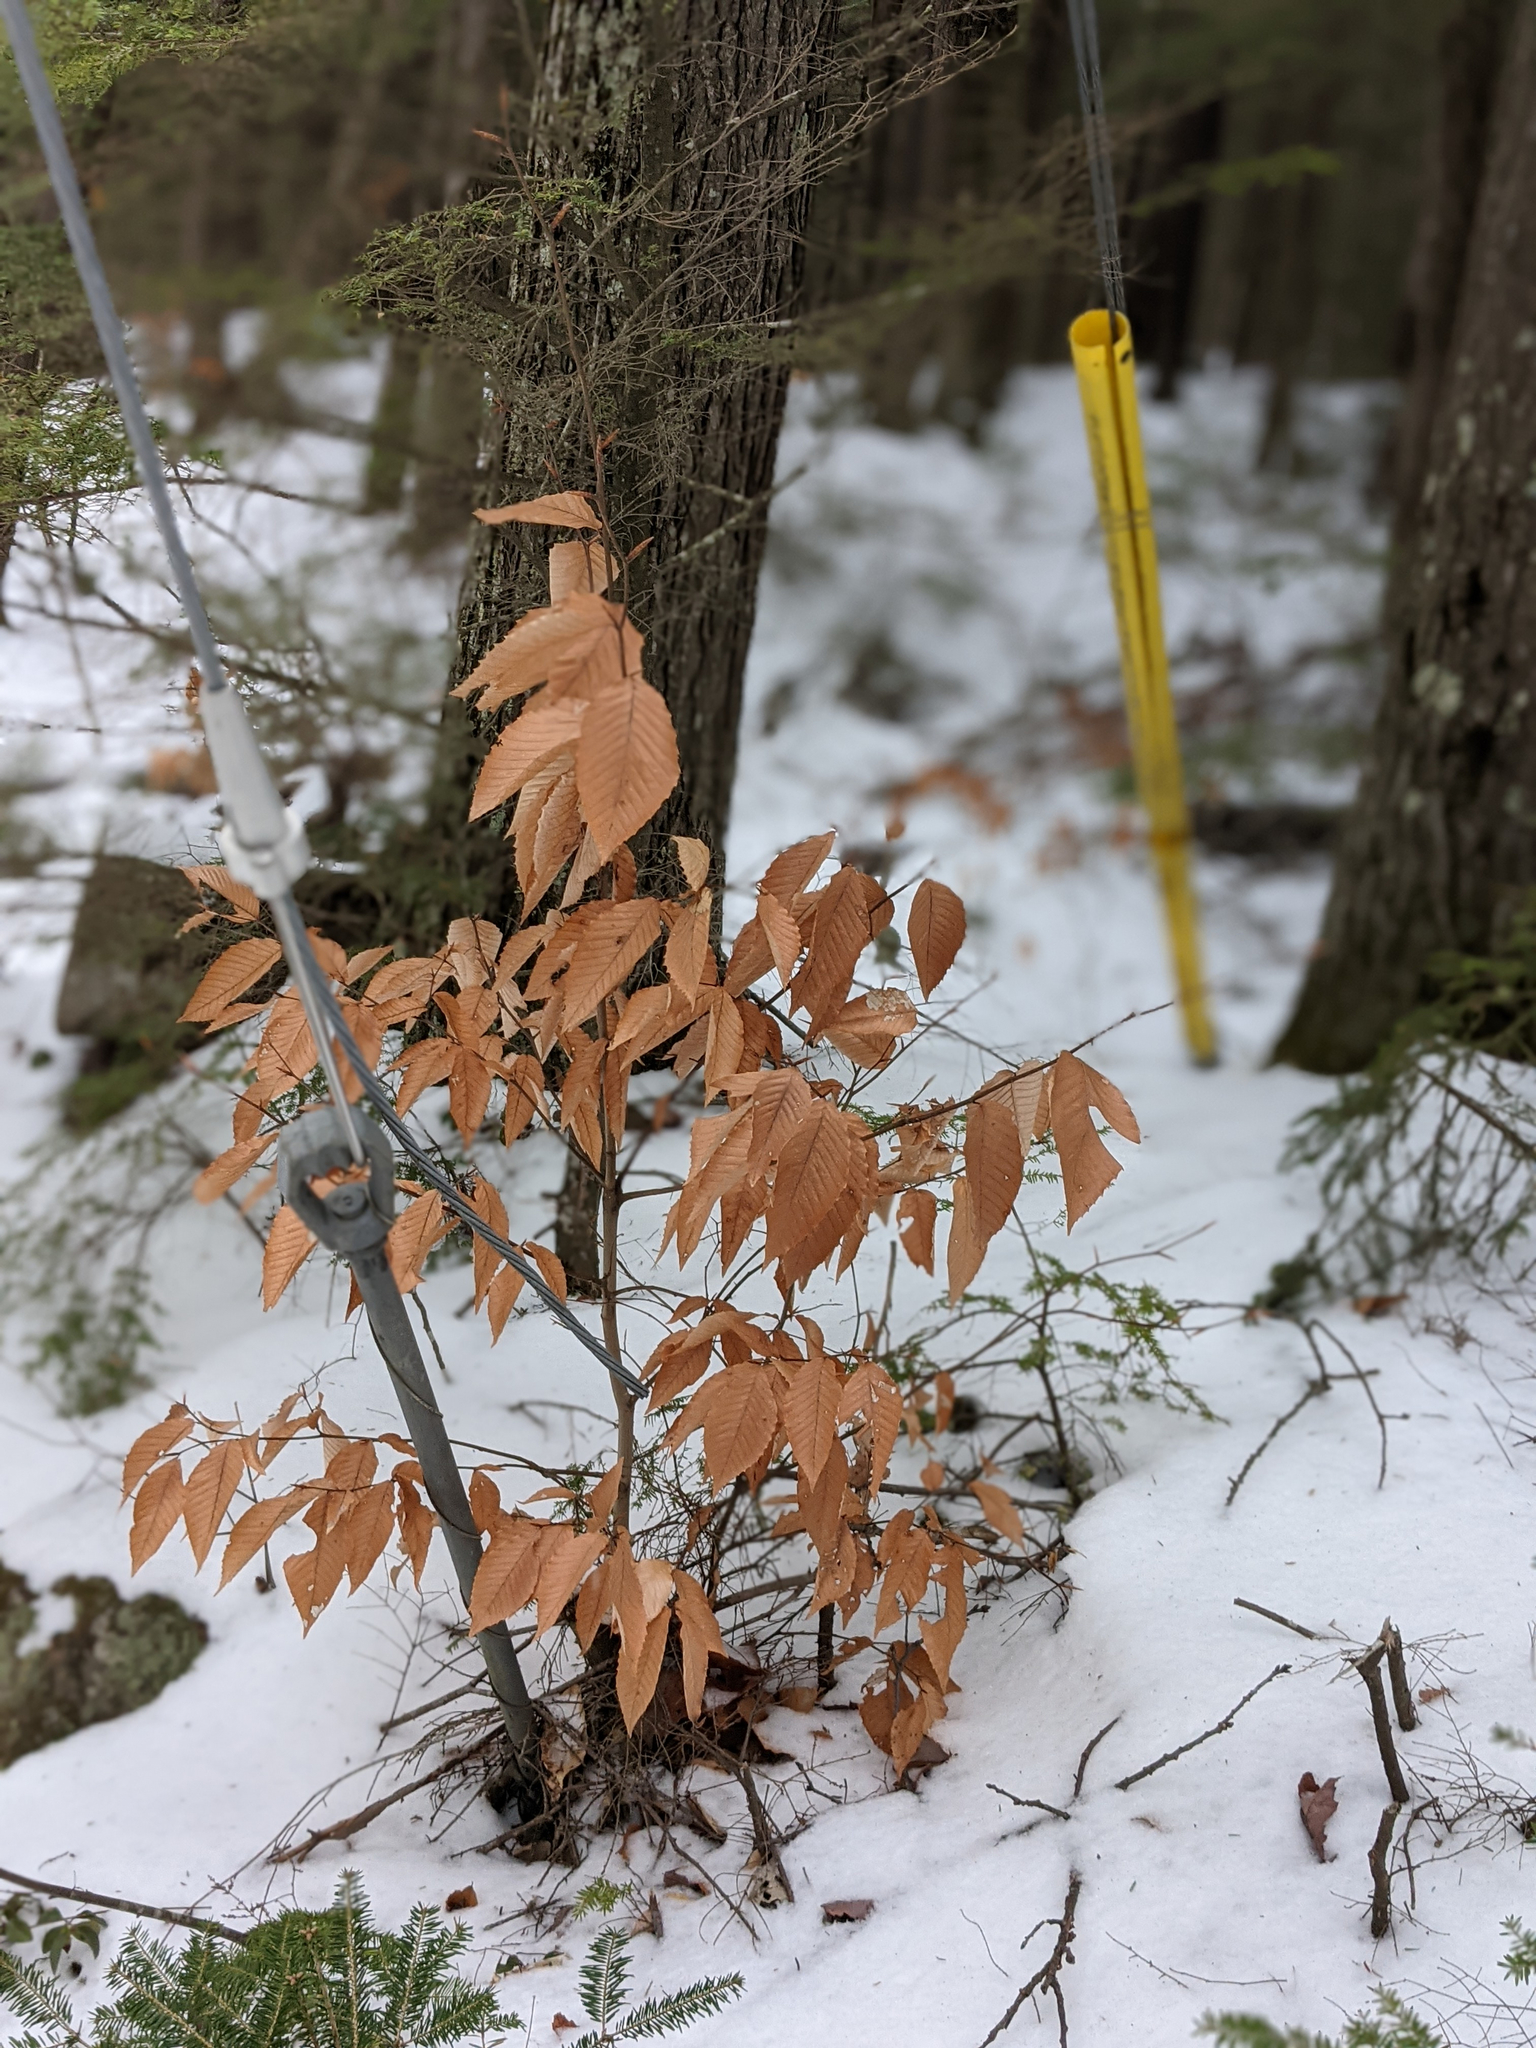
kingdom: Plantae
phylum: Tracheophyta
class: Magnoliopsida
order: Fagales
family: Fagaceae
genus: Fagus
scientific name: Fagus grandifolia
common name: American beech
